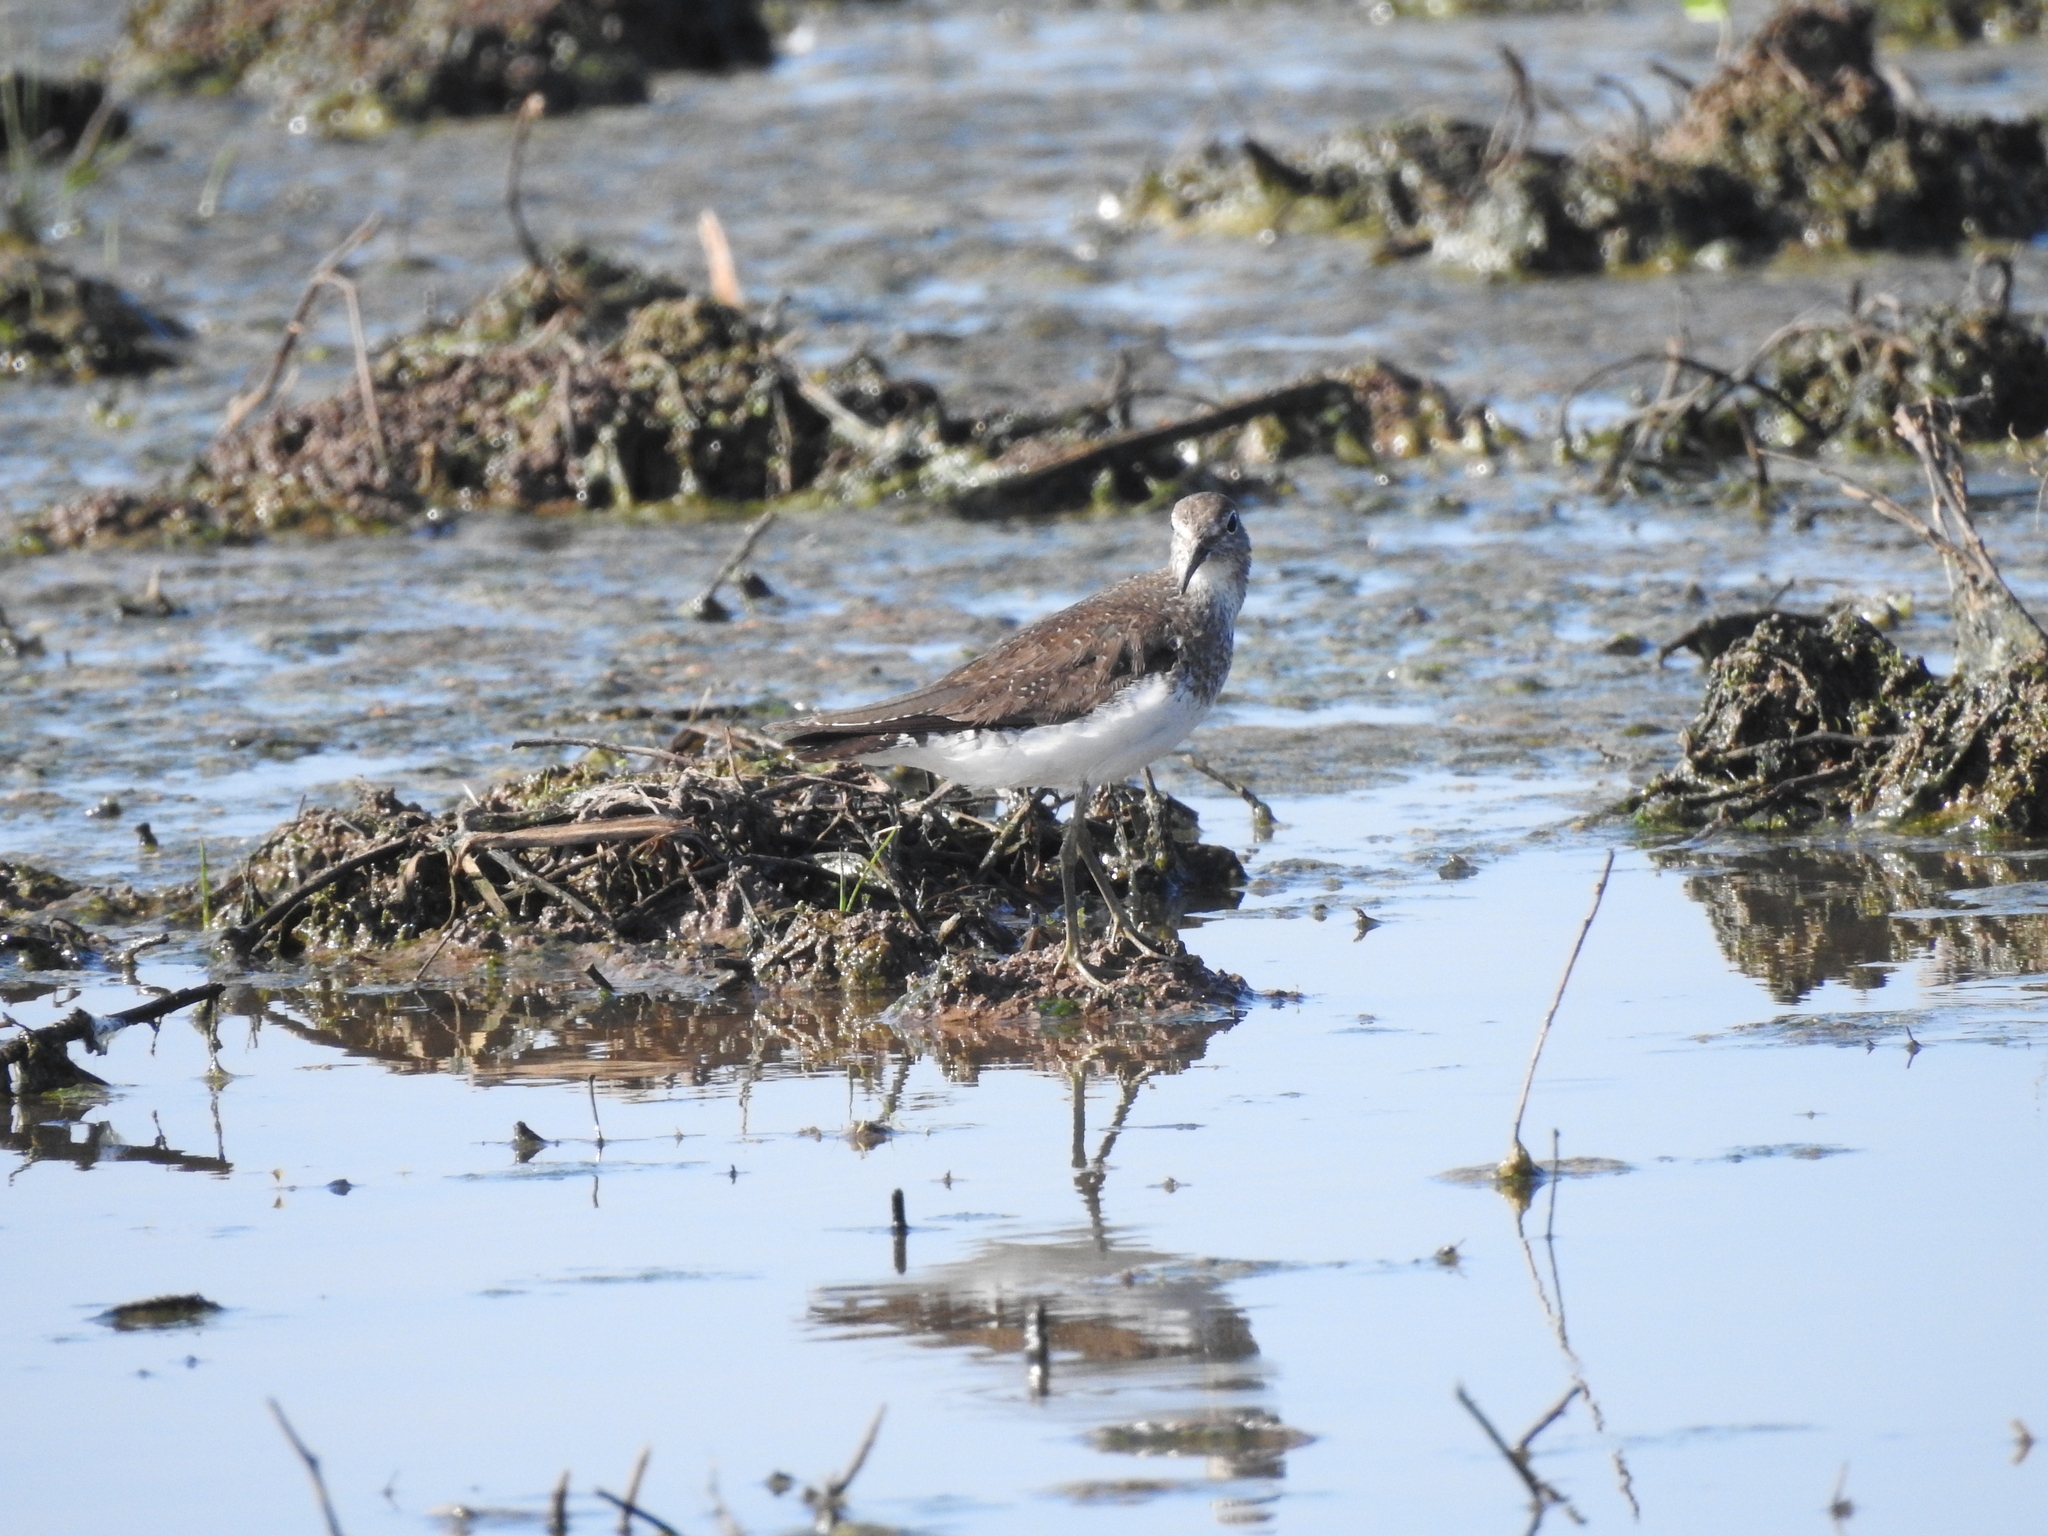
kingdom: Animalia
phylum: Chordata
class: Aves
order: Charadriiformes
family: Scolopacidae
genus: Tringa
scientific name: Tringa solitaria
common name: Solitary sandpiper
